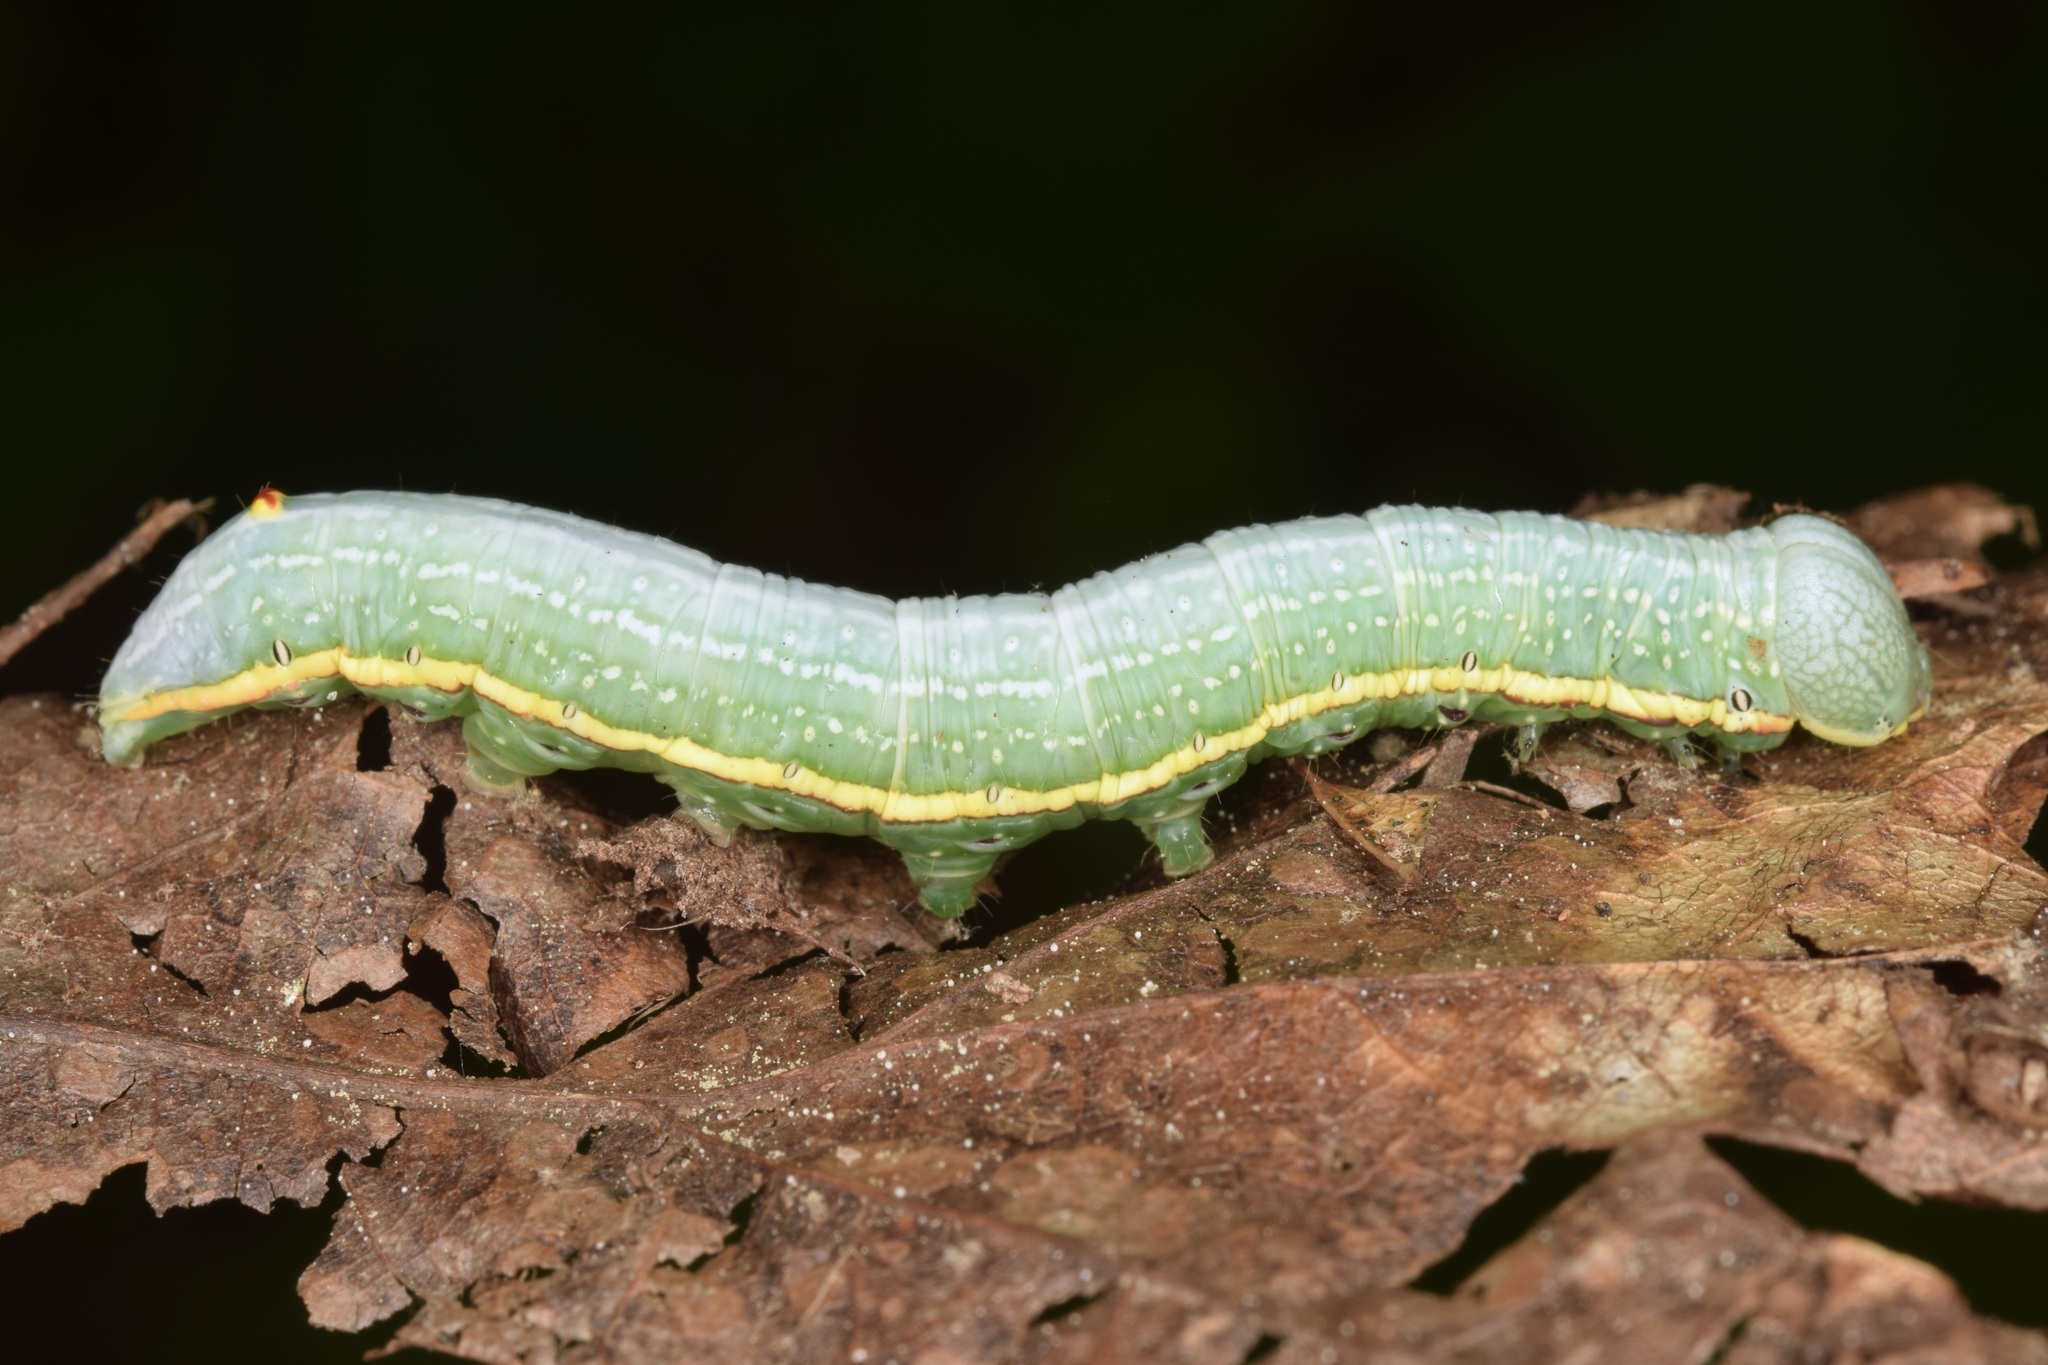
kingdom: Animalia
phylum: Arthropoda
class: Insecta
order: Lepidoptera
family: Notodontidae
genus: Paraeschra
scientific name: Paraeschra georgica
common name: Georgian prominent
